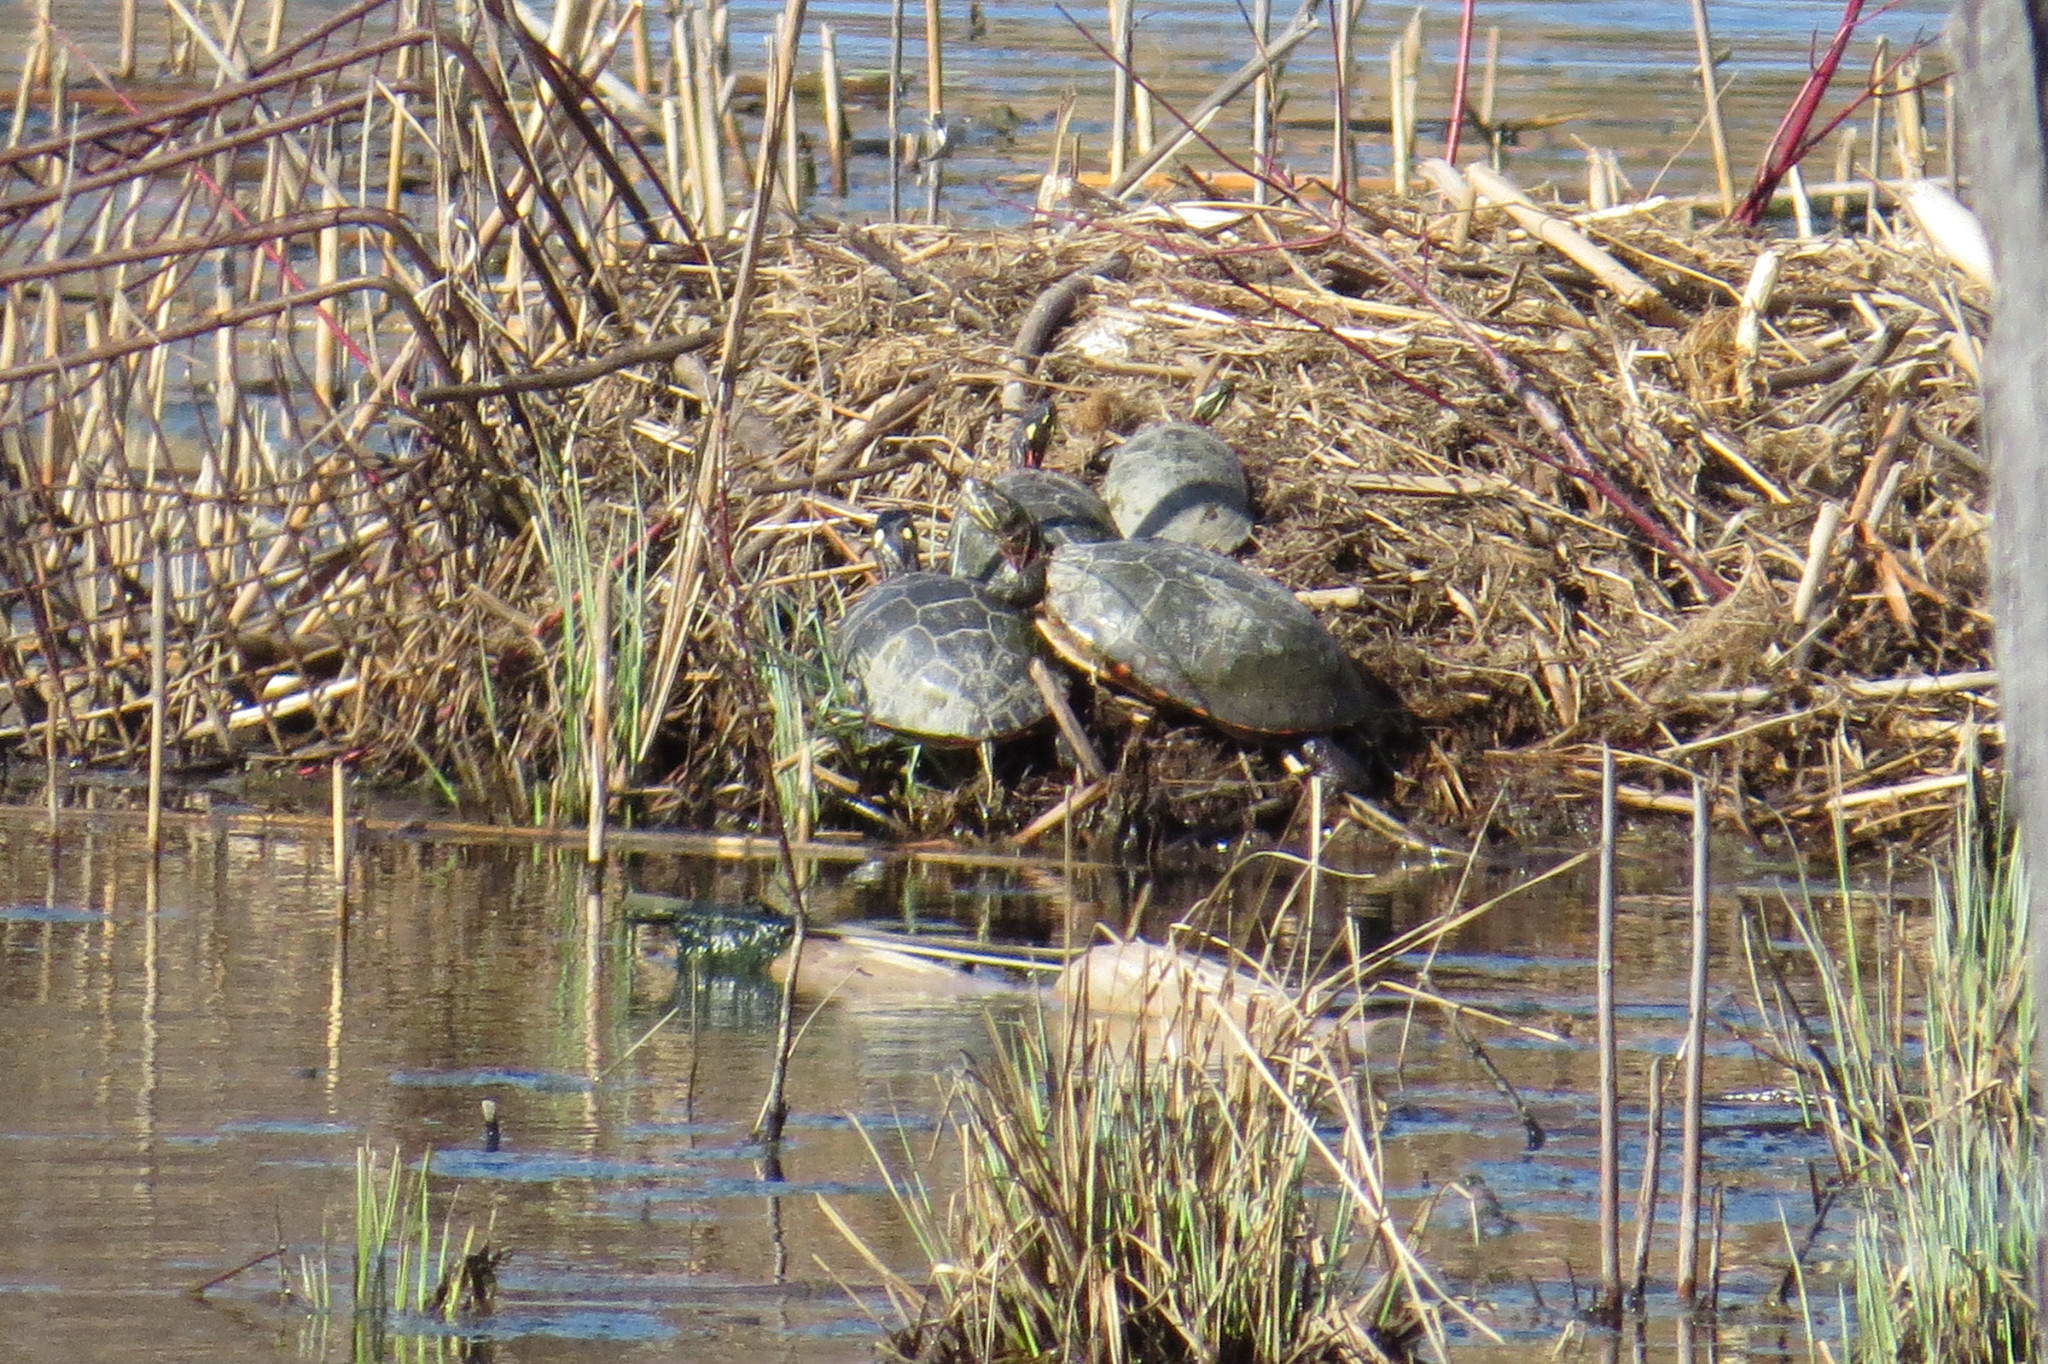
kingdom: Animalia
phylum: Chordata
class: Testudines
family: Emydidae
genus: Chrysemys
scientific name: Chrysemys picta
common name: Painted turtle
